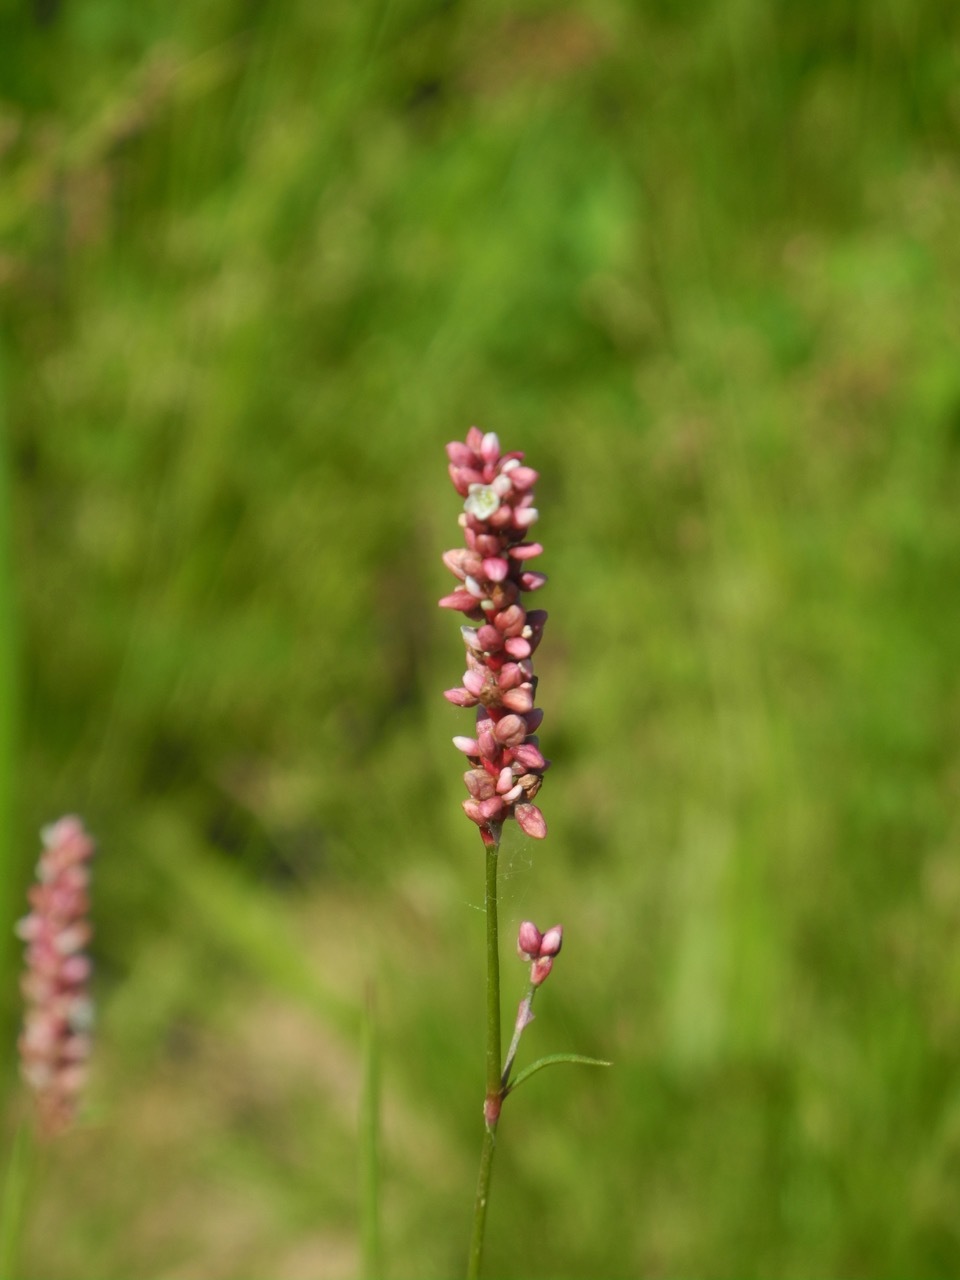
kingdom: Plantae
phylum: Tracheophyta
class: Magnoliopsida
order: Caryophyllales
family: Polygonaceae
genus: Persicaria
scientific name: Persicaria longiseta
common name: Bristly lady's-thumb
